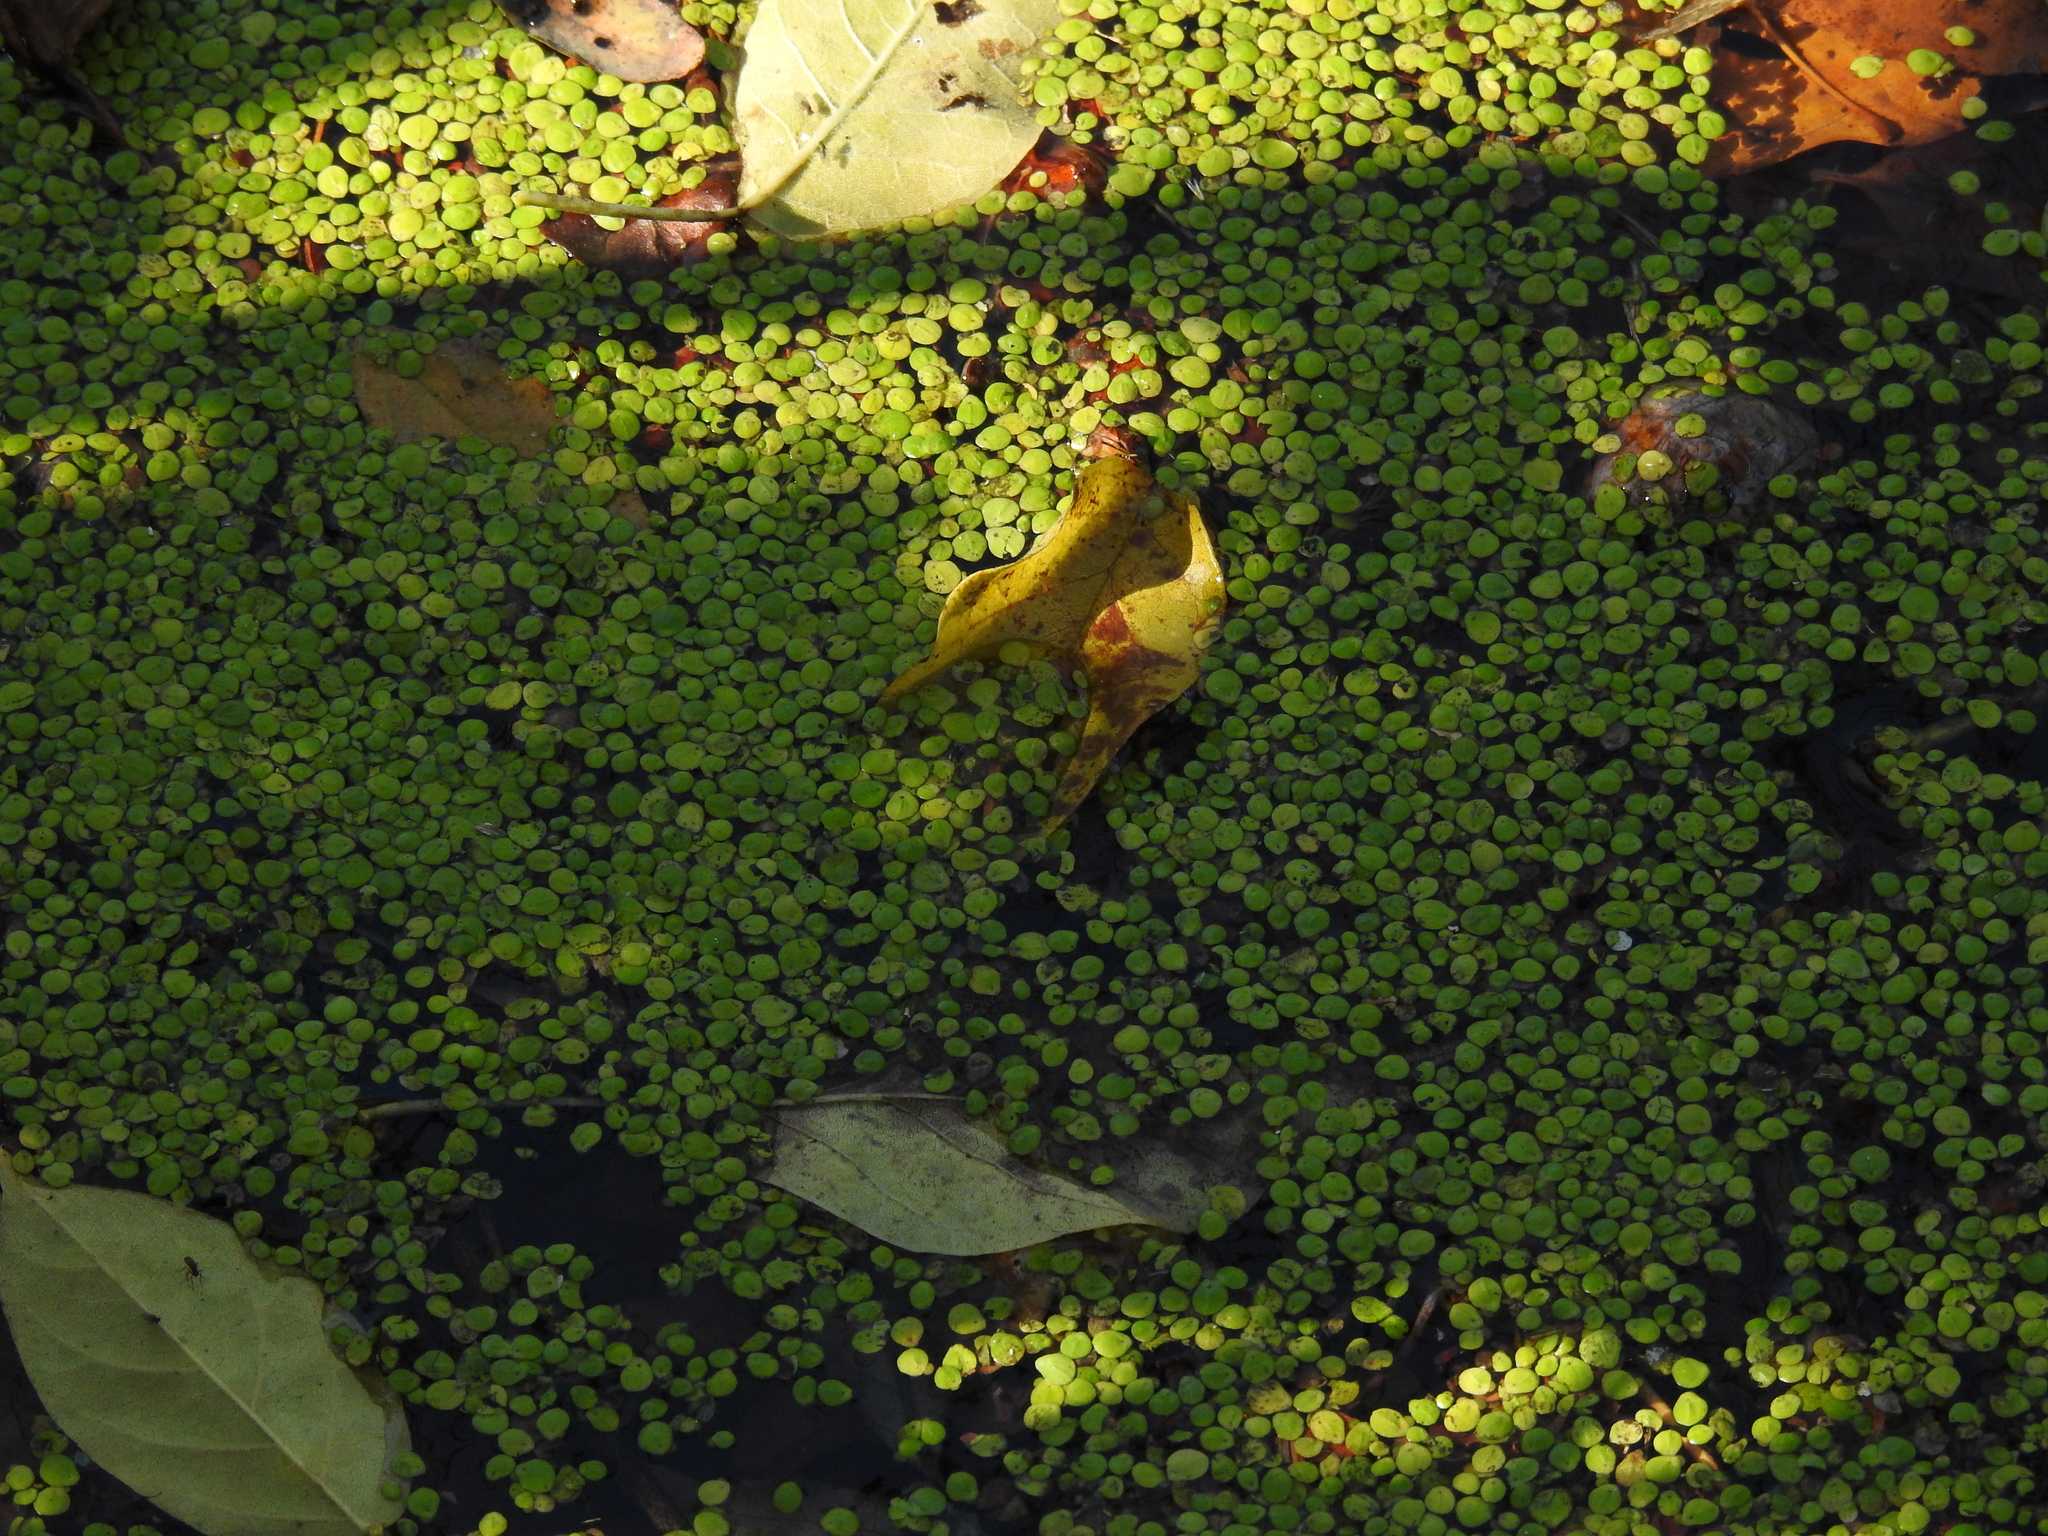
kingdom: Plantae
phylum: Tracheophyta
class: Liliopsida
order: Alismatales
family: Araceae
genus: Lemna
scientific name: Lemna minor
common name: Common duckweed
